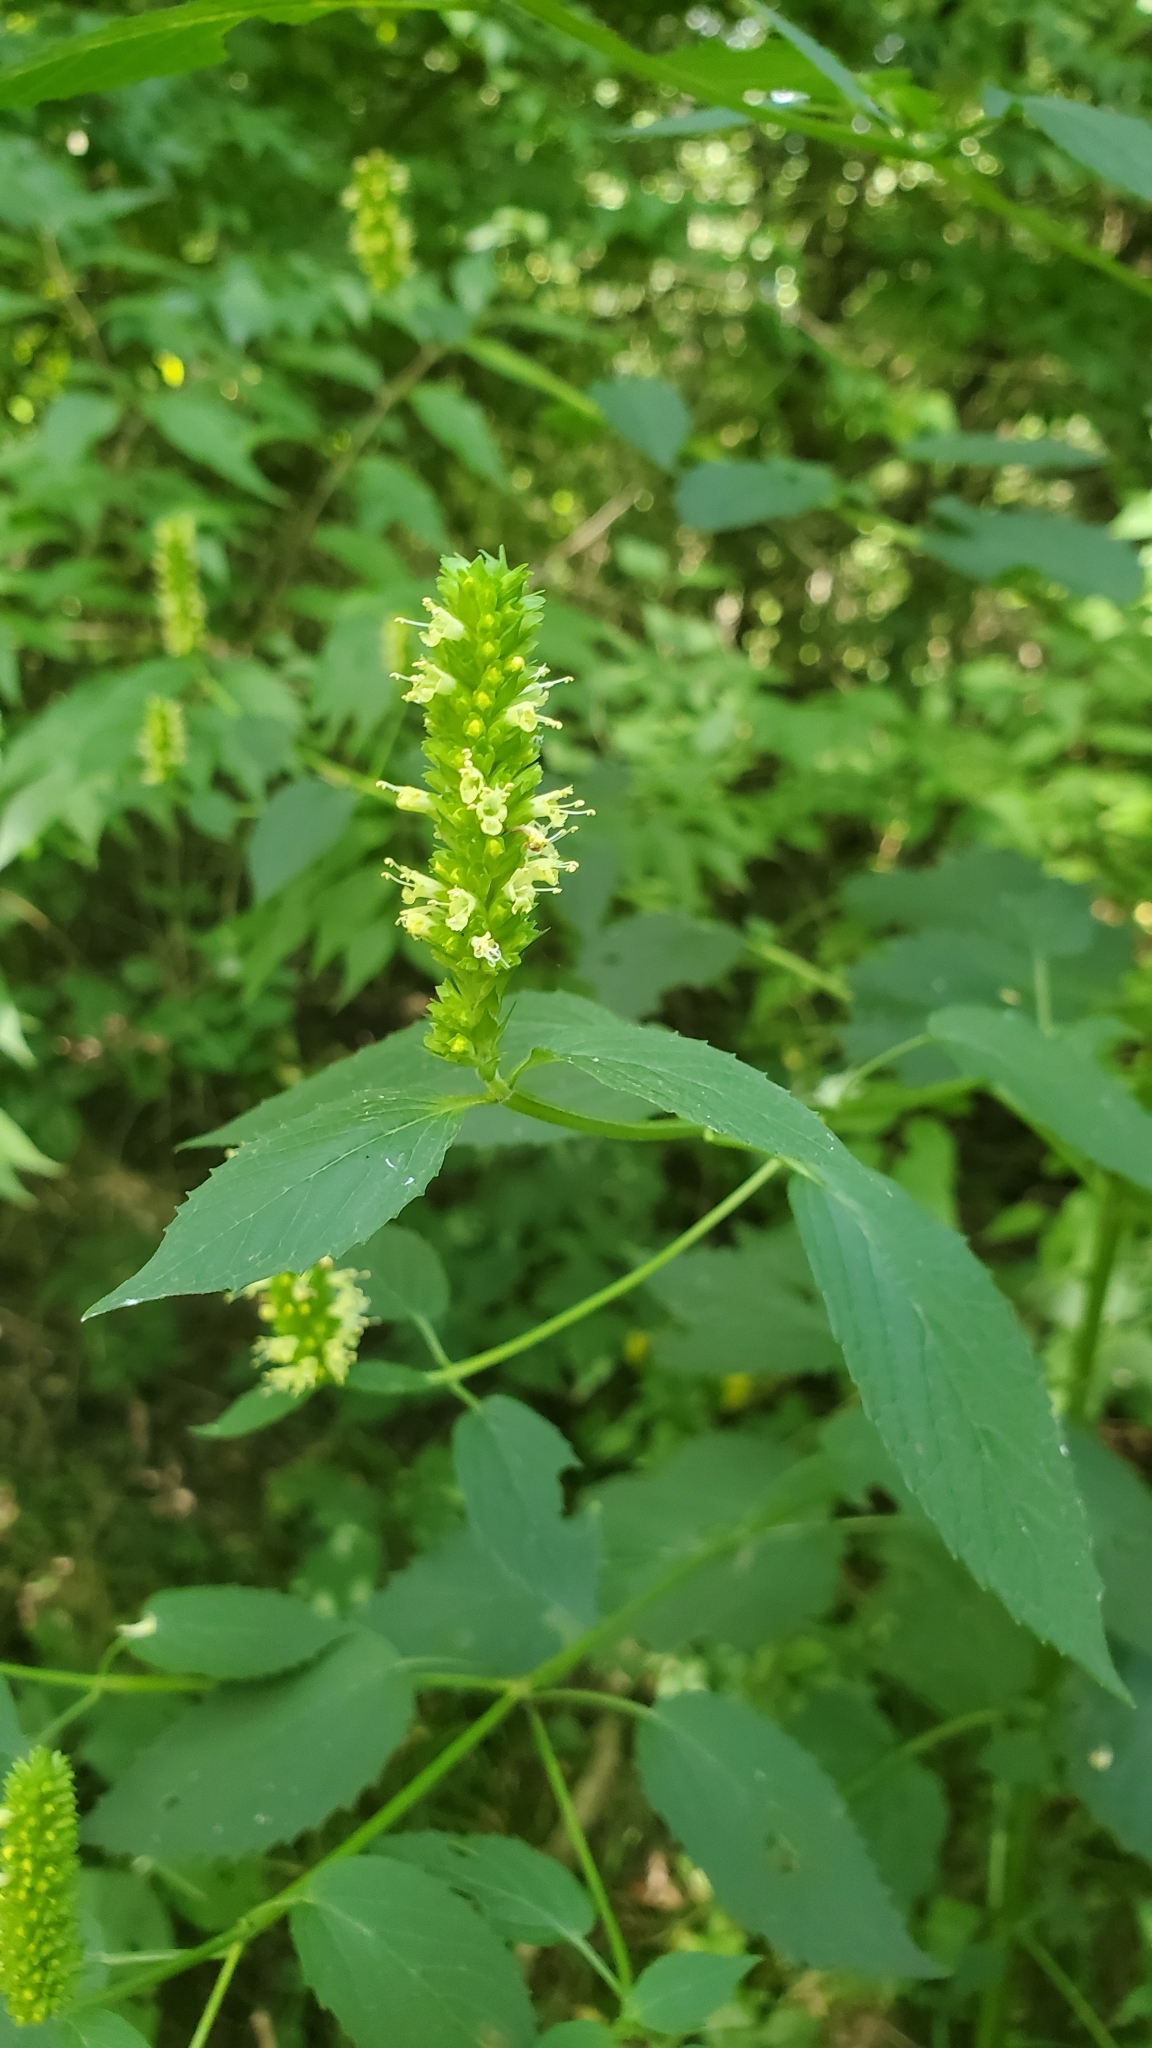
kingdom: Plantae
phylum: Tracheophyta
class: Magnoliopsida
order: Lamiales
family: Lamiaceae
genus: Agastache
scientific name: Agastache nepetoides
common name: Catnip giant hyssop
